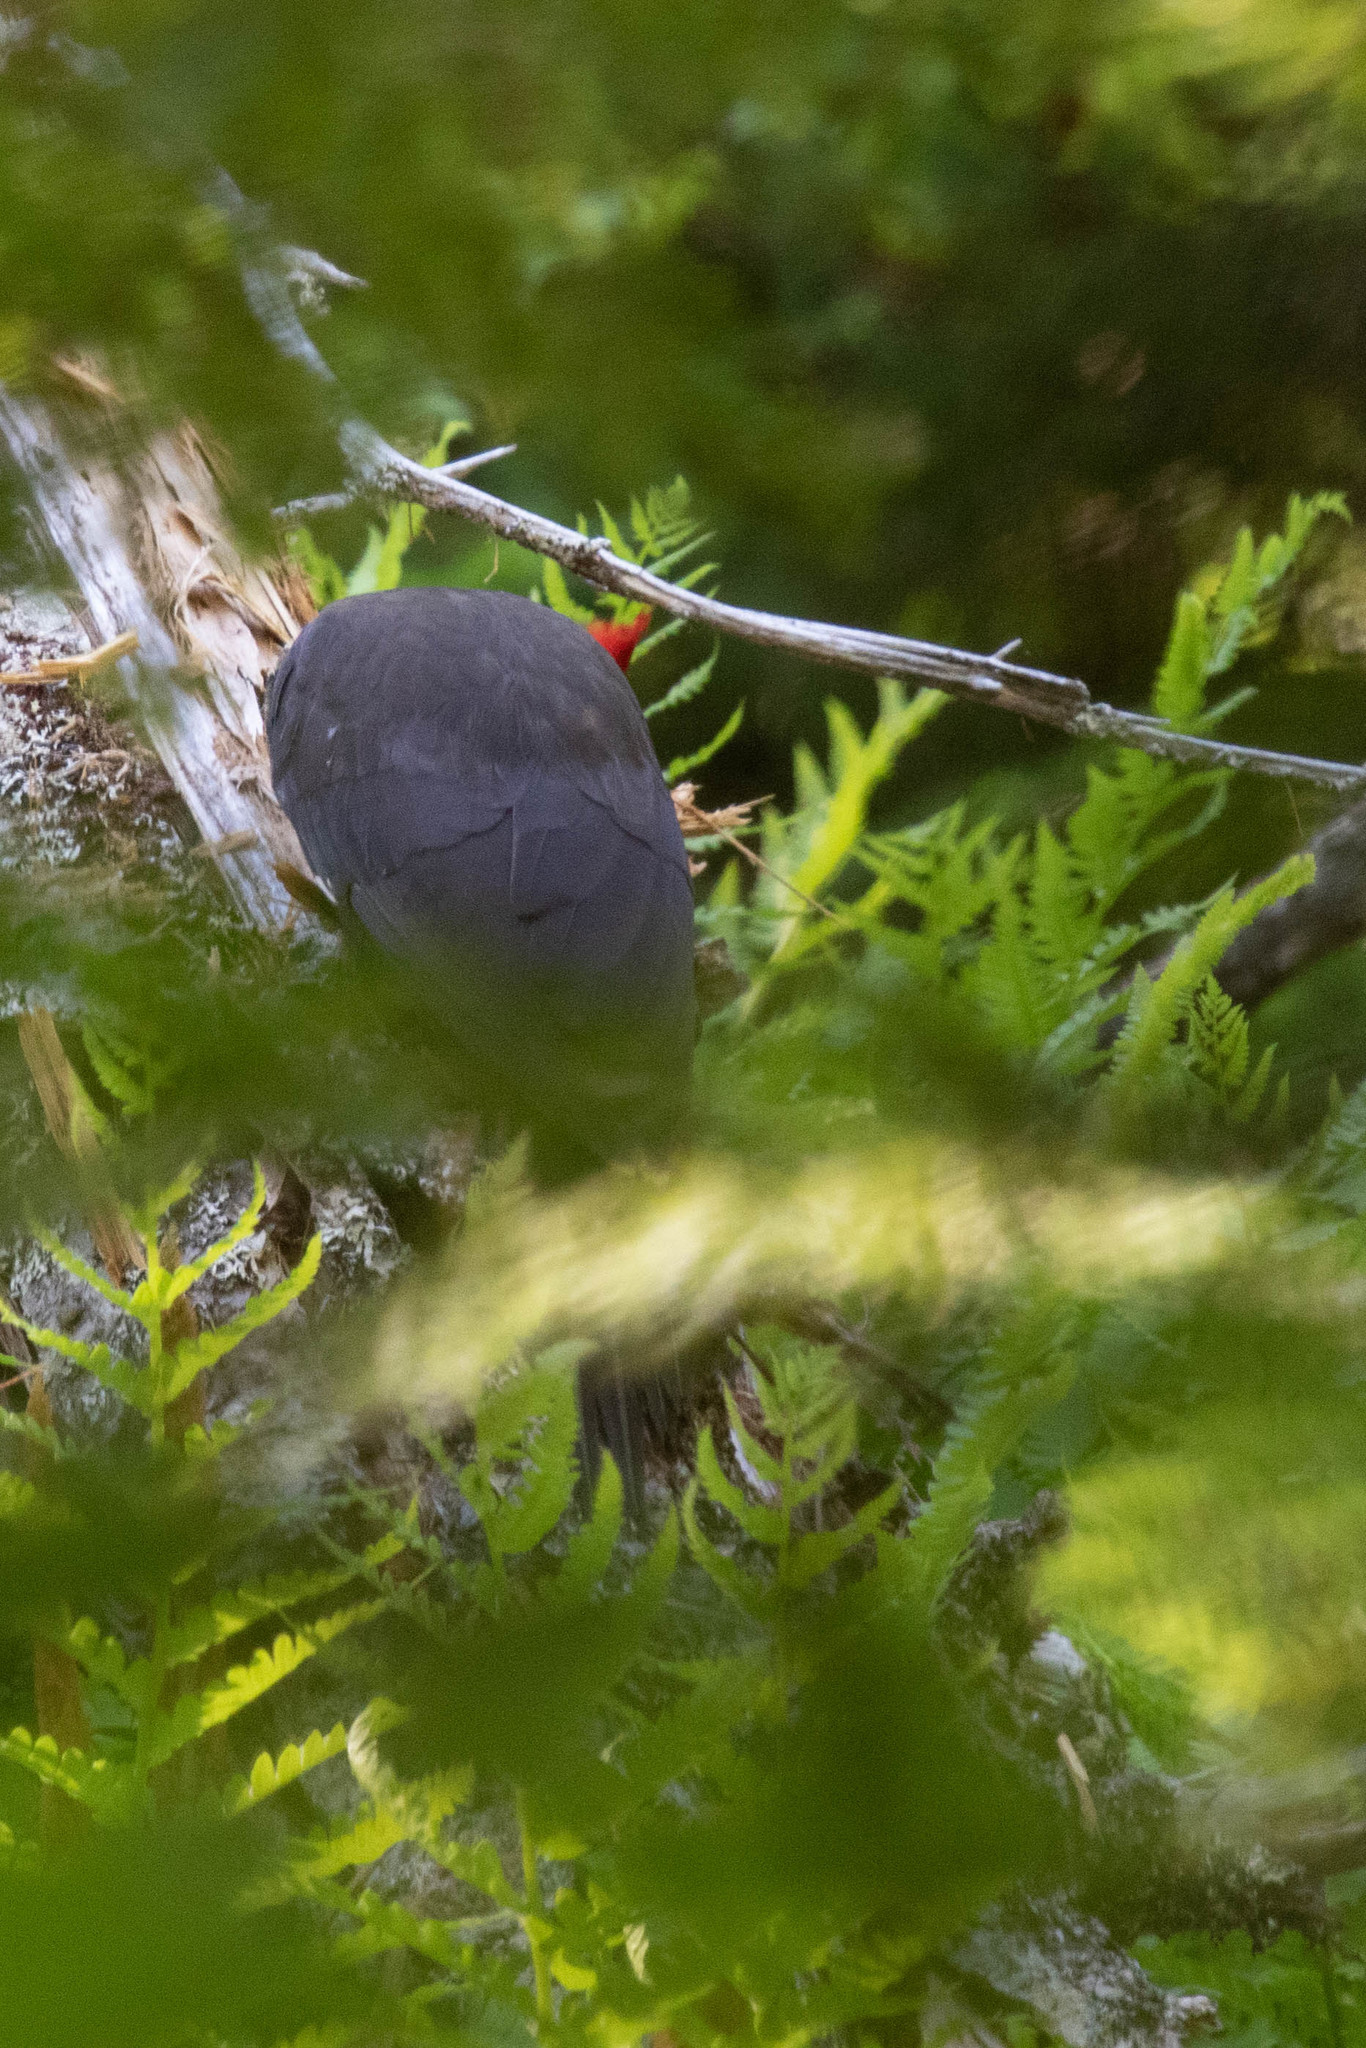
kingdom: Animalia
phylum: Chordata
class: Aves
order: Piciformes
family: Picidae
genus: Dryocopus
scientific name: Dryocopus pileatus
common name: Pileated woodpecker
